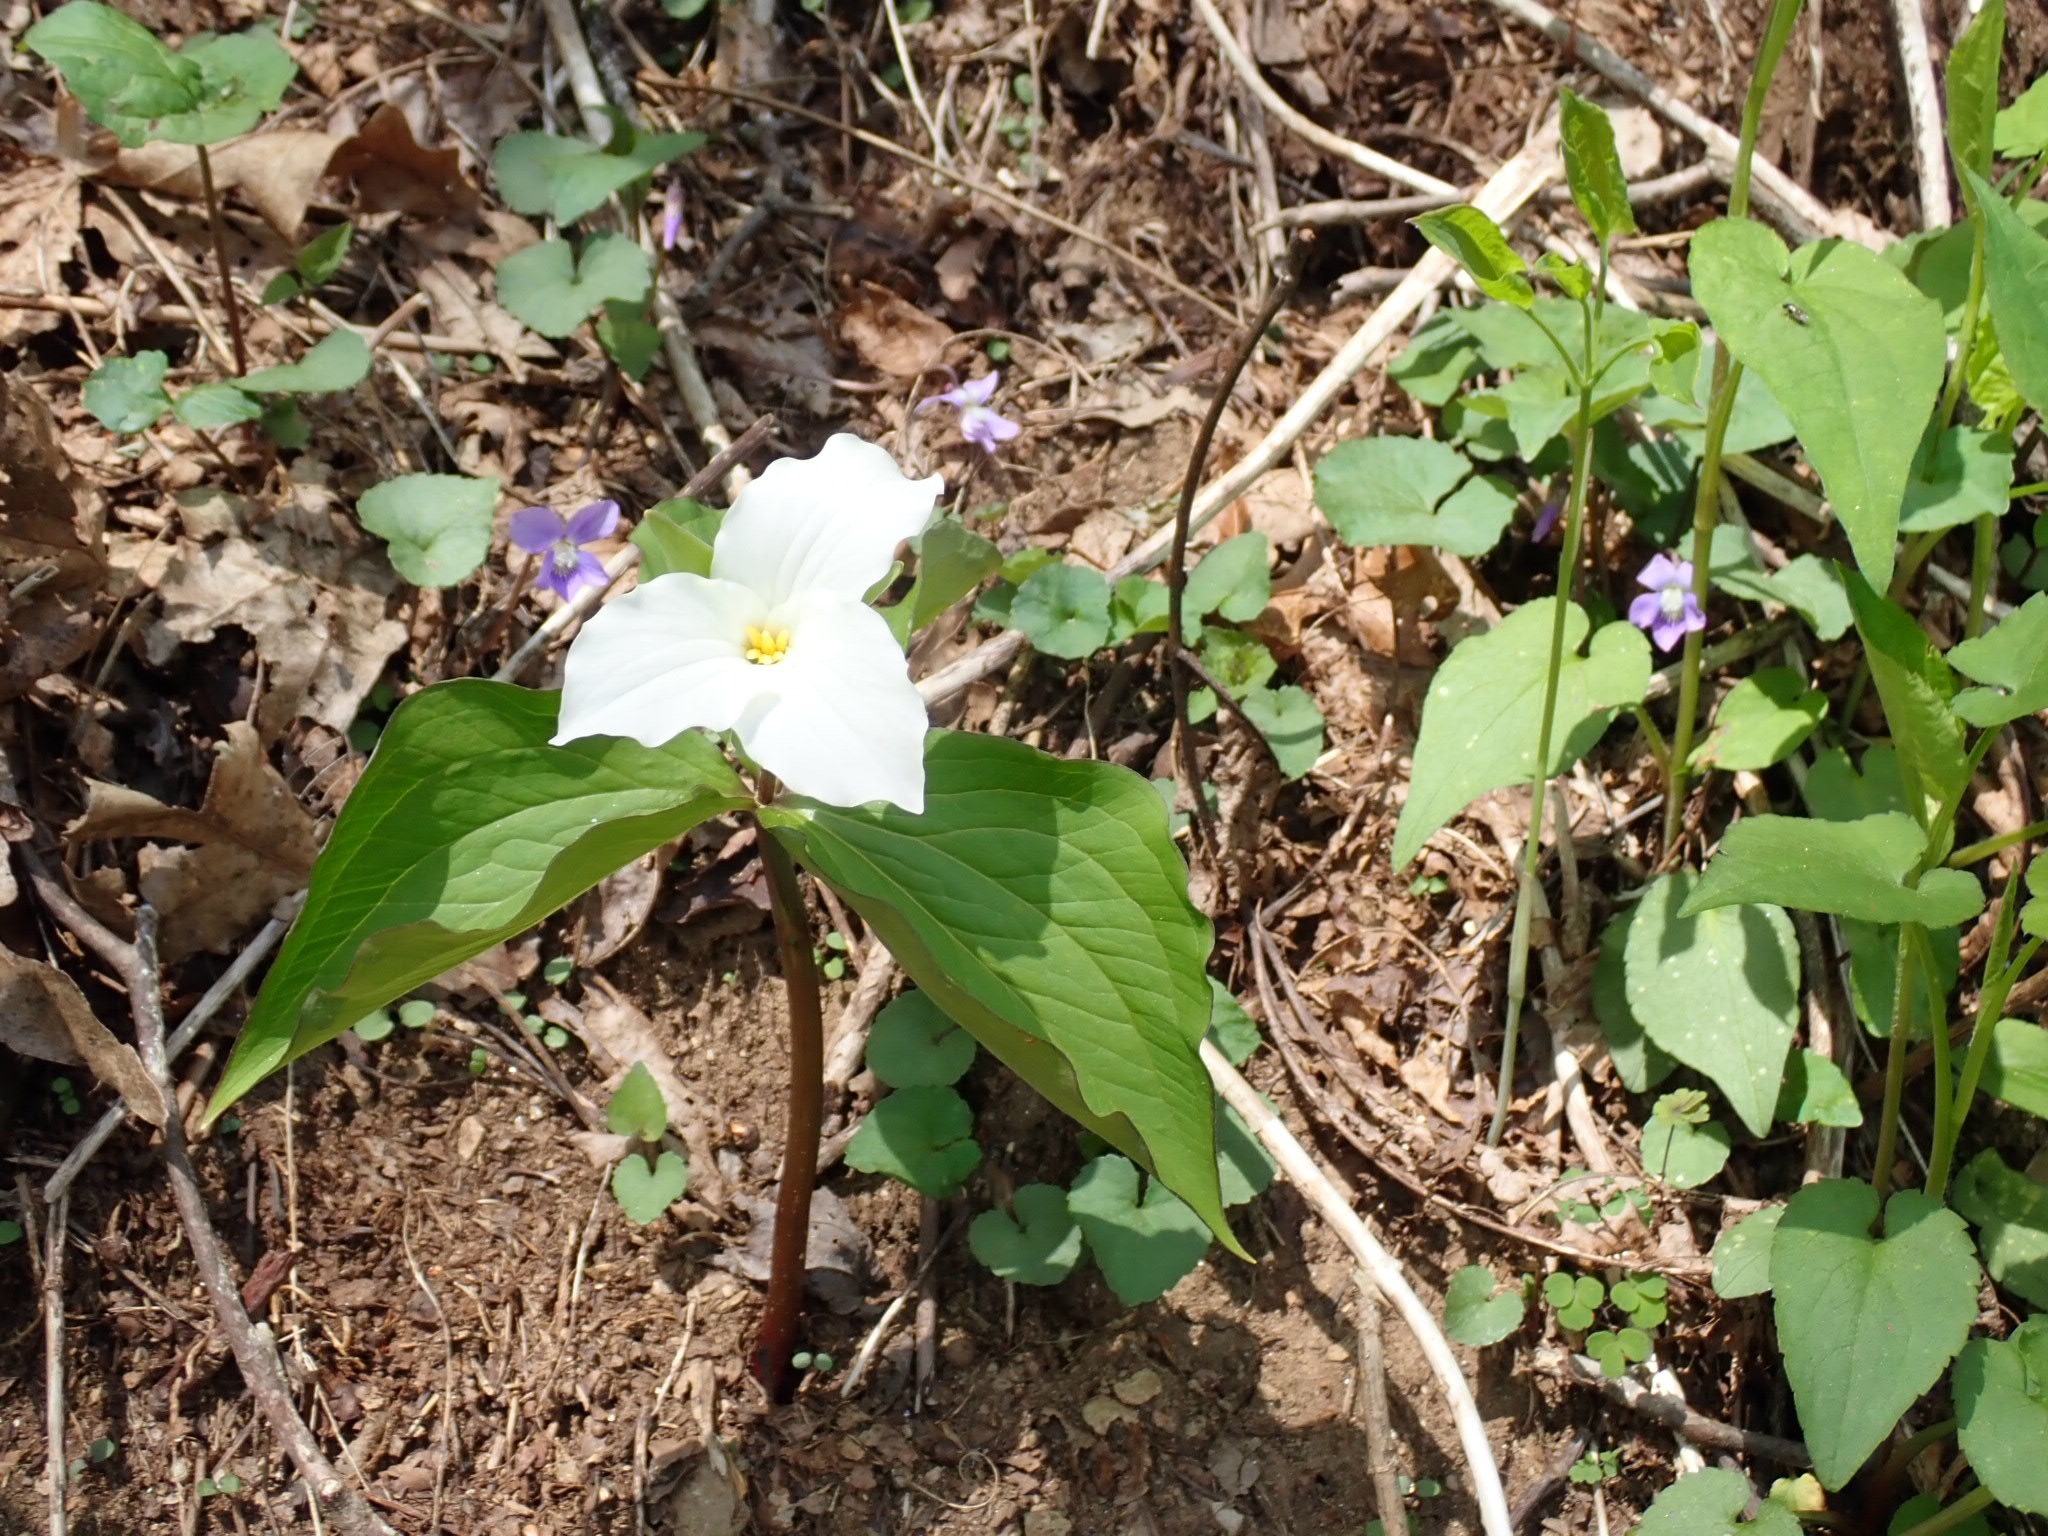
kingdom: Plantae
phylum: Tracheophyta
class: Liliopsida
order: Liliales
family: Melanthiaceae
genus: Trillium
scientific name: Trillium grandiflorum
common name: Great white trillium
